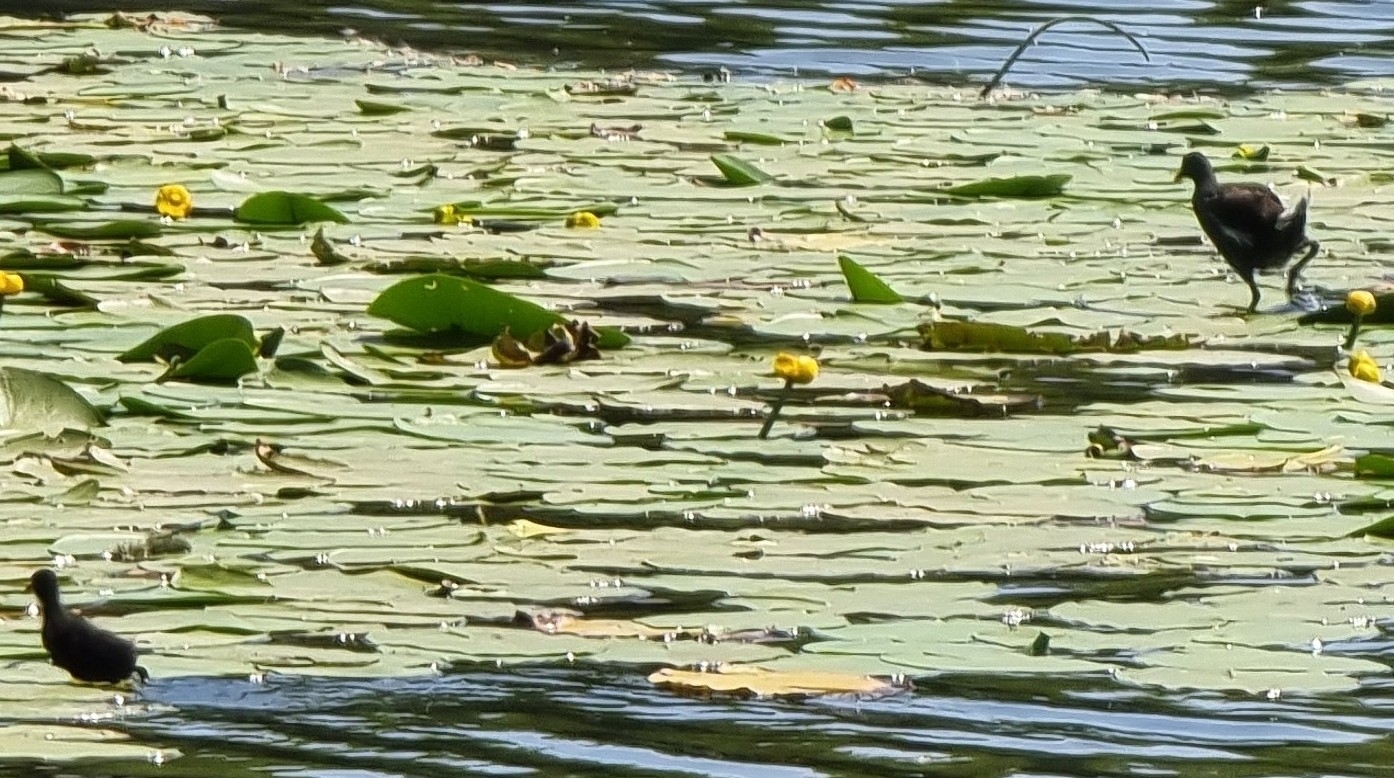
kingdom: Animalia
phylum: Chordata
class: Aves
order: Gruiformes
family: Rallidae
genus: Gallinula
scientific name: Gallinula chloropus
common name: Common moorhen
